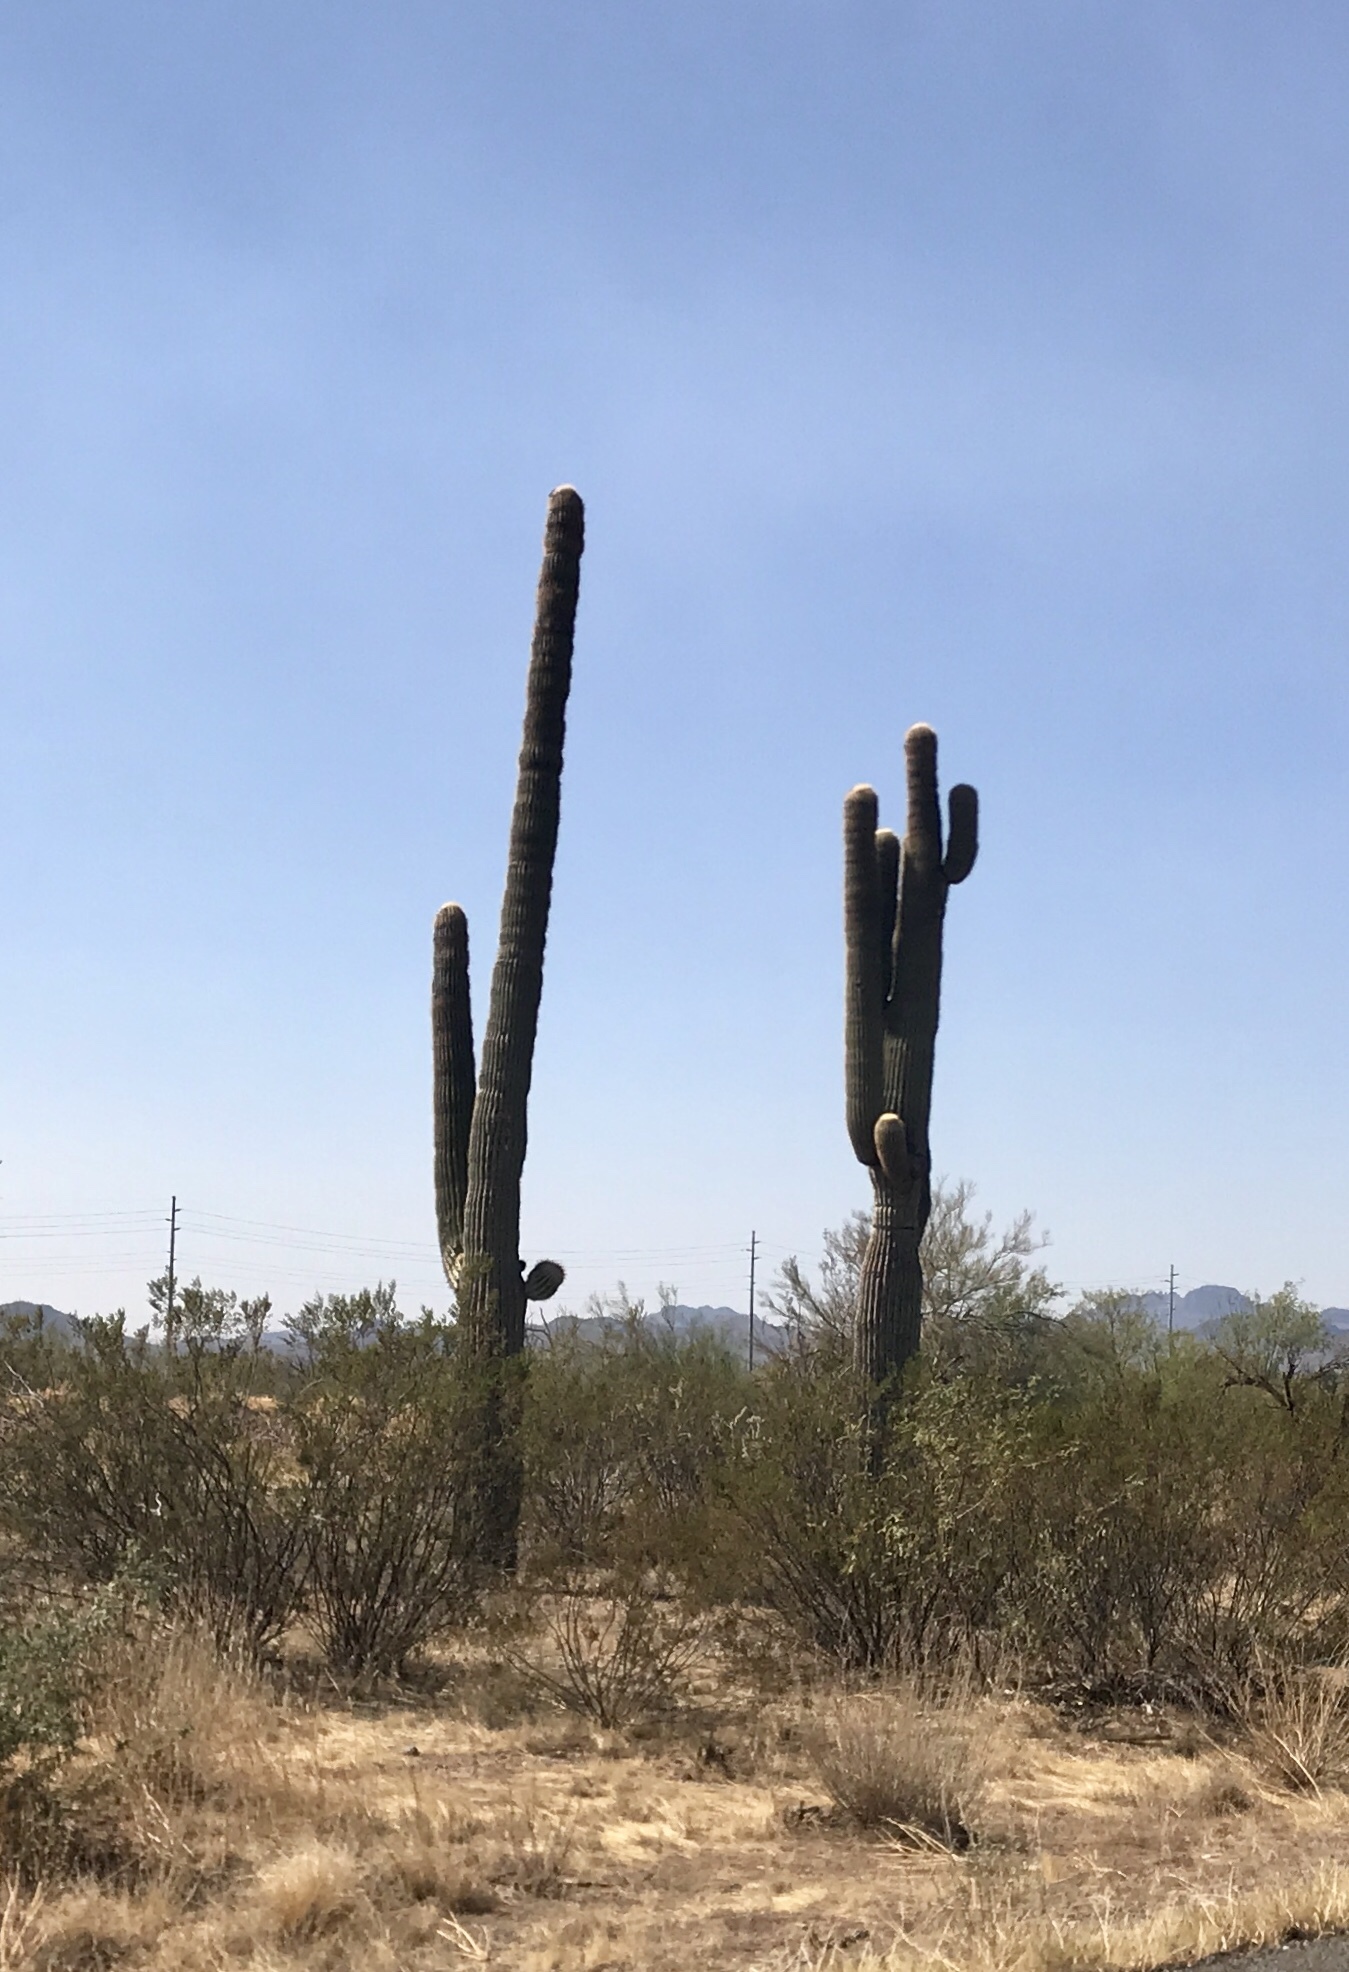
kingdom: Plantae
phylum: Tracheophyta
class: Magnoliopsida
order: Caryophyllales
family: Cactaceae
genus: Carnegiea
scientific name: Carnegiea gigantea
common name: Saguaro
